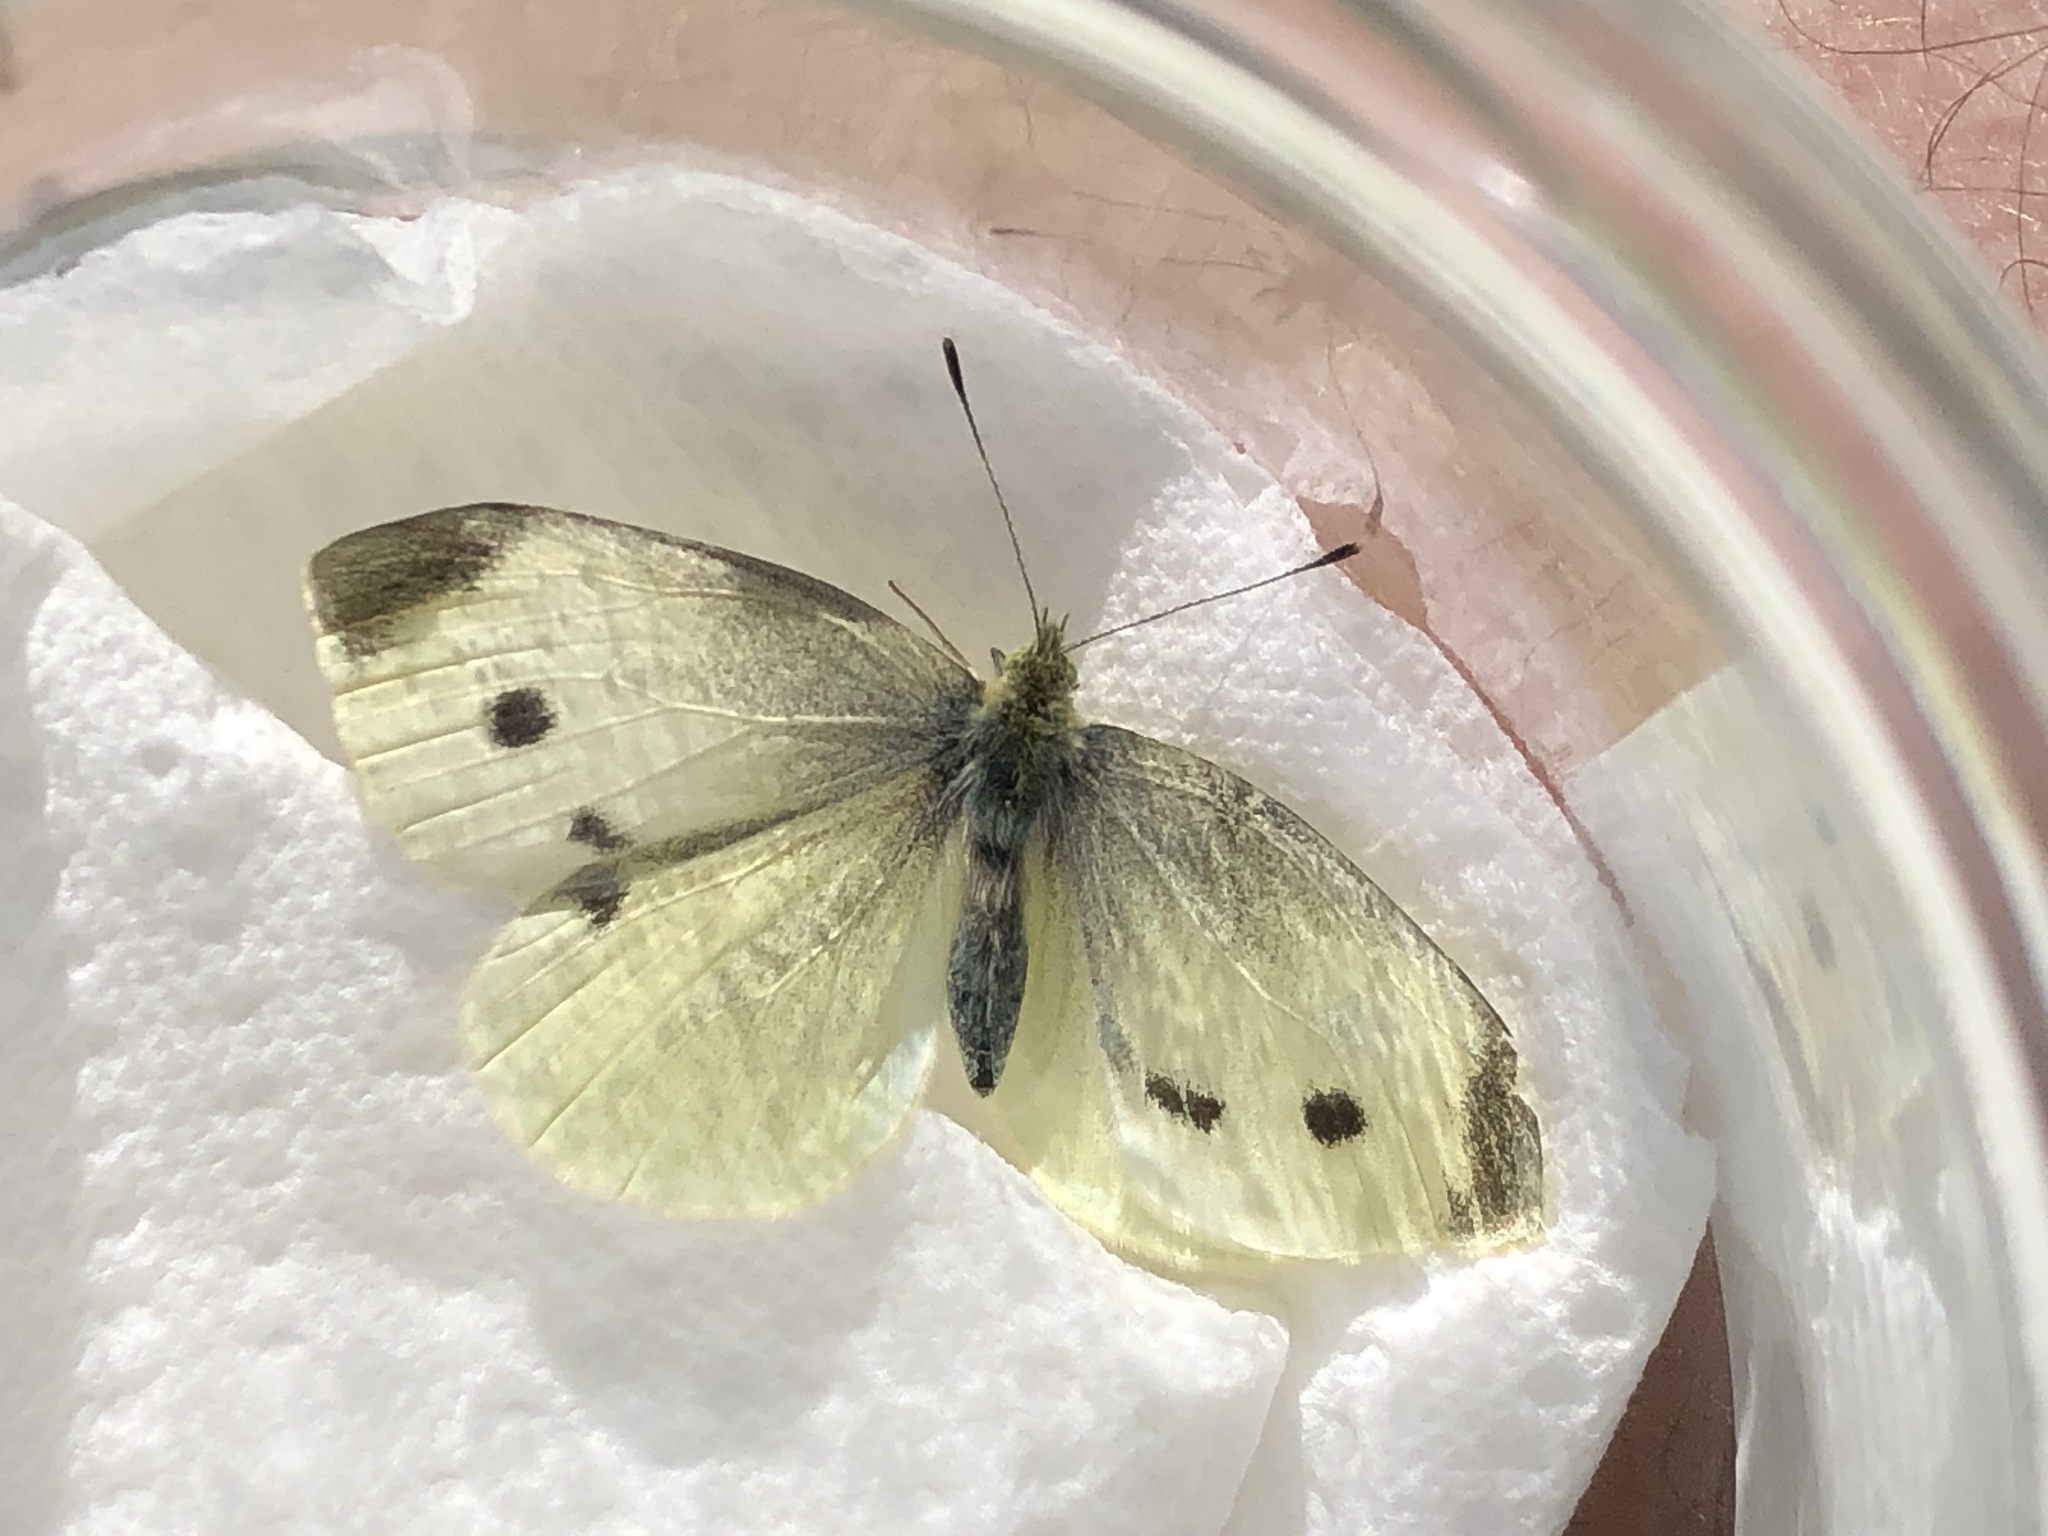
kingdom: Animalia
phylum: Arthropoda
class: Insecta
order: Lepidoptera
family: Pieridae
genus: Pieris
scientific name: Pieris rapae
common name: Small white
